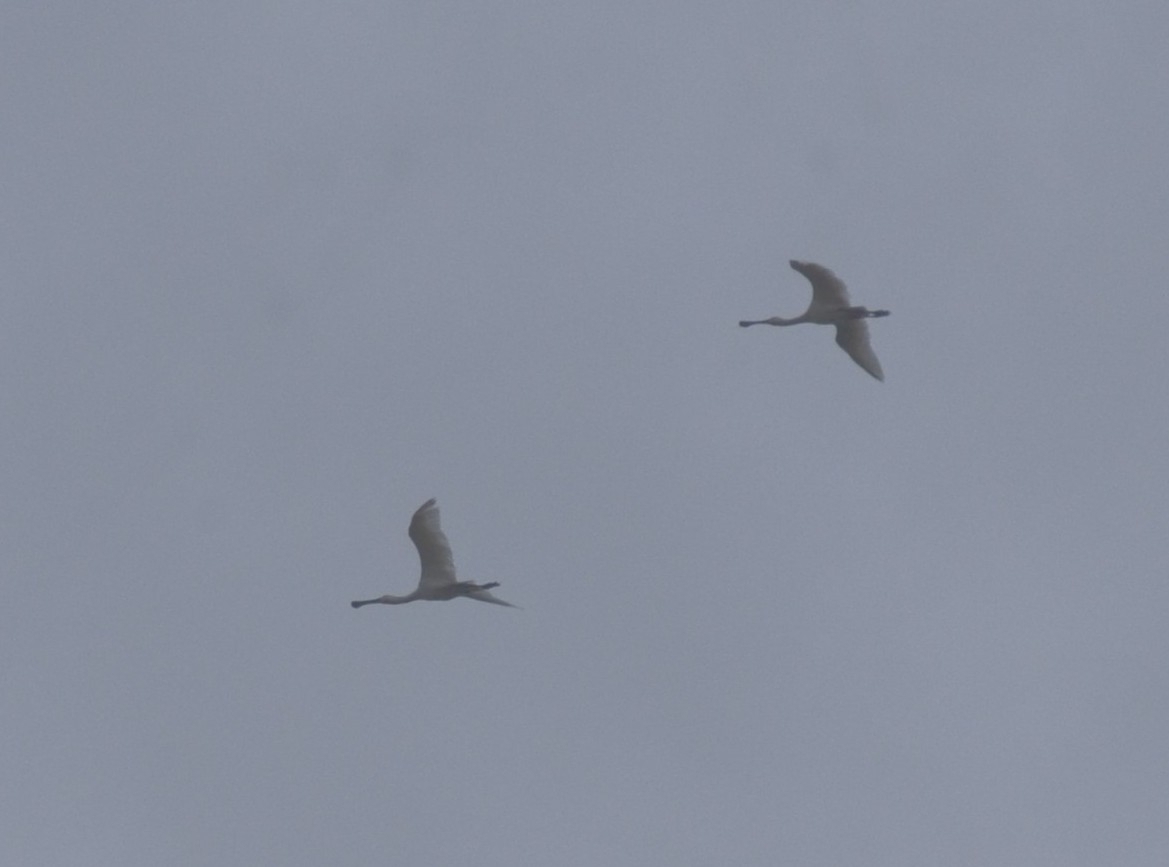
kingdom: Animalia
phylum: Chordata
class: Aves
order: Pelecaniformes
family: Threskiornithidae
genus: Platalea
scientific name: Platalea leucorodia
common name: Eurasian spoonbill
